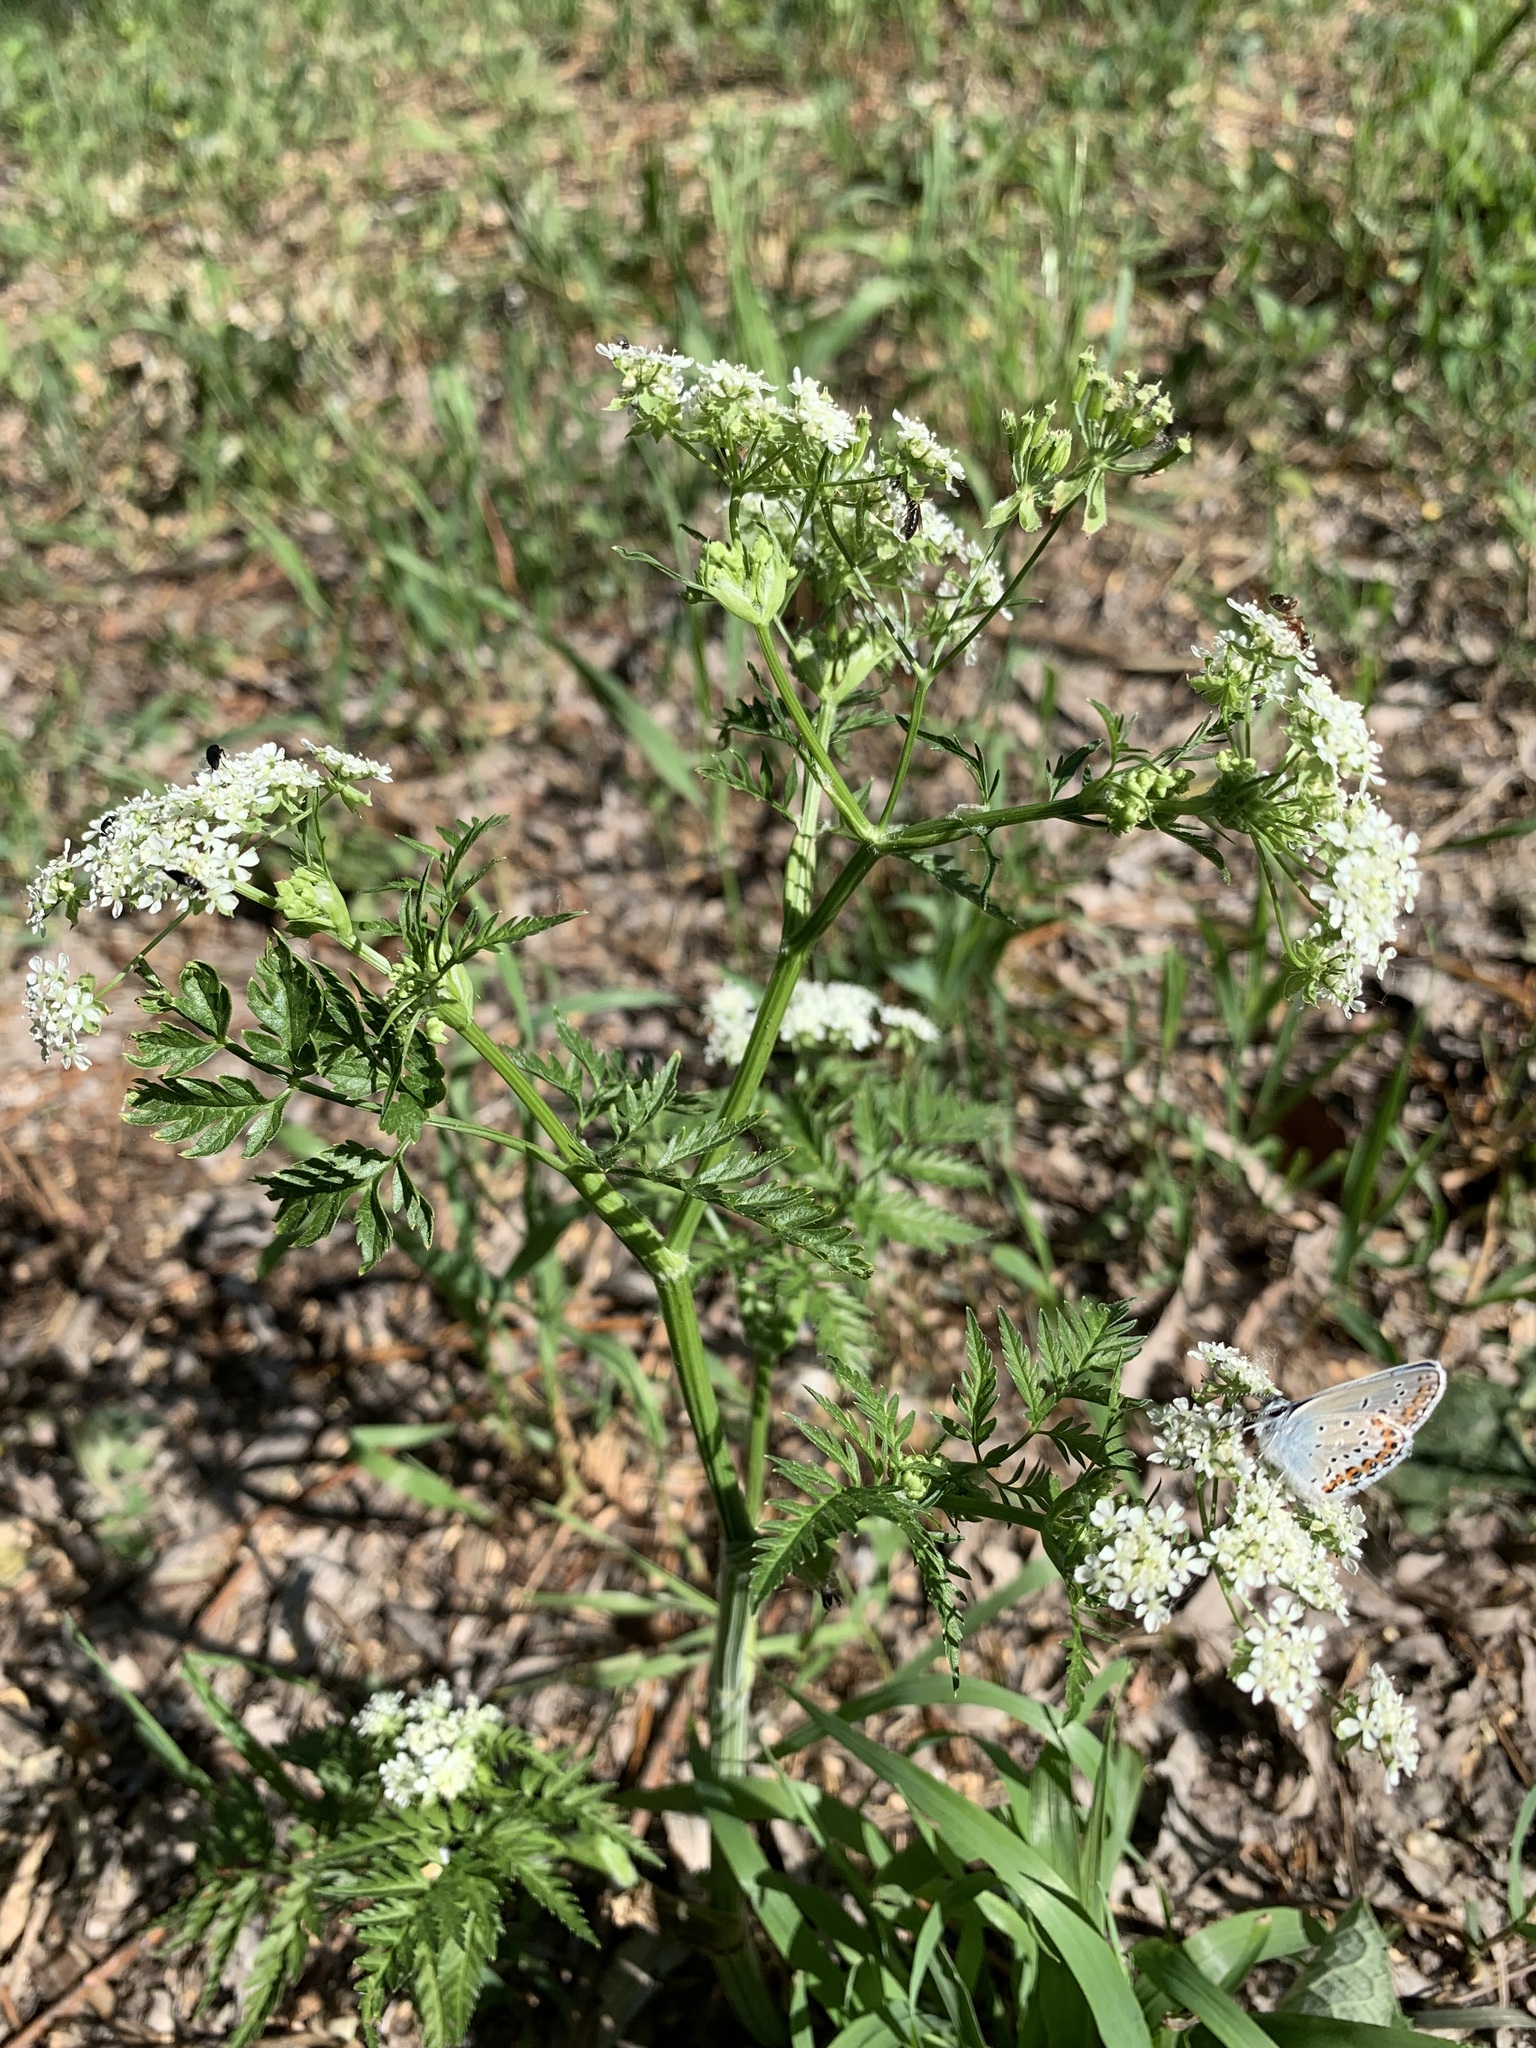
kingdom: Plantae
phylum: Tracheophyta
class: Magnoliopsida
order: Apiales
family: Apiaceae
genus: Anthriscus
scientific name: Anthriscus sylvestris
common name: Cow parsley
